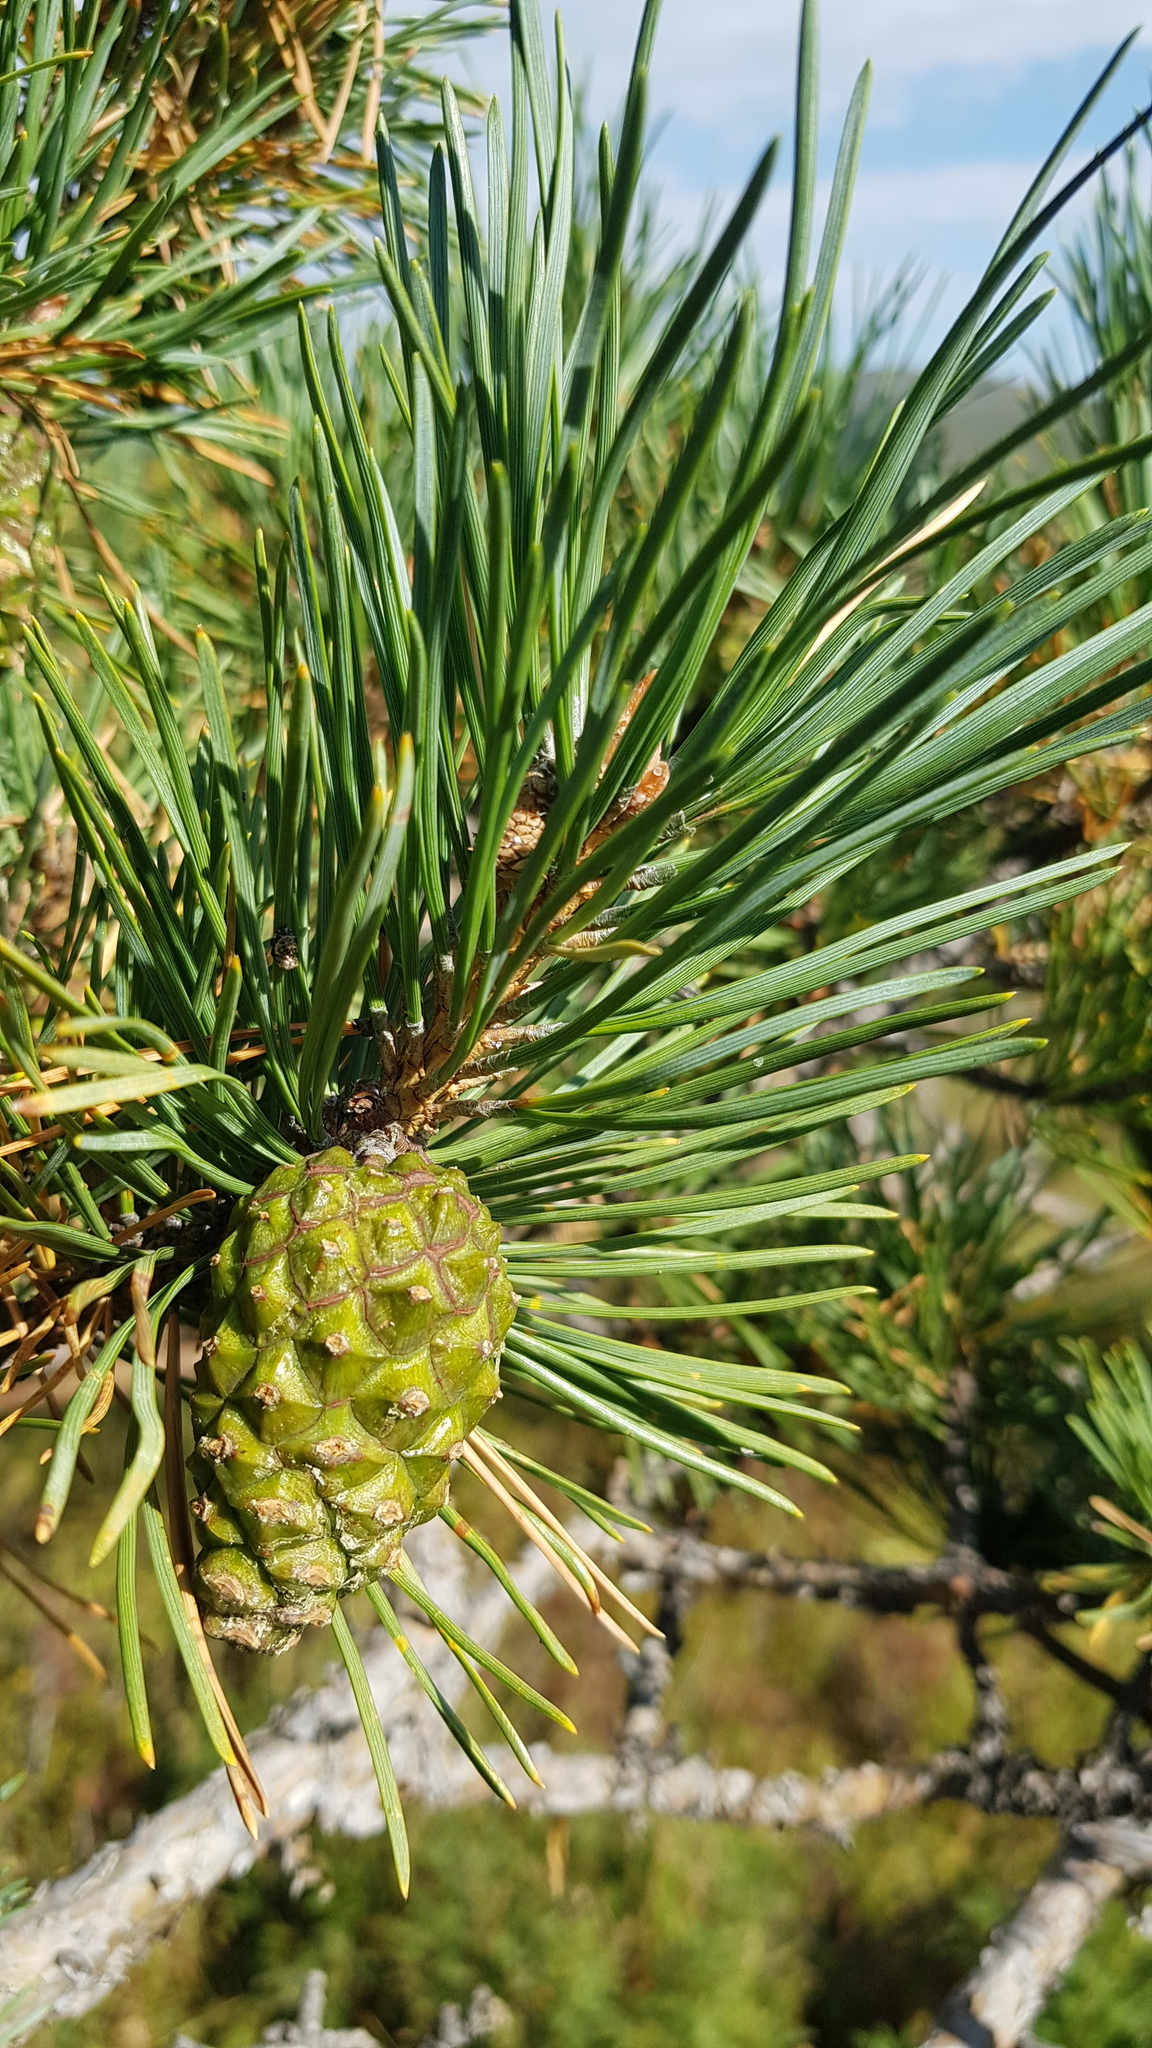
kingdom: Plantae
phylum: Tracheophyta
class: Pinopsida
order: Pinales
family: Pinaceae
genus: Pinus
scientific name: Pinus sylvestris
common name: Scots pine
